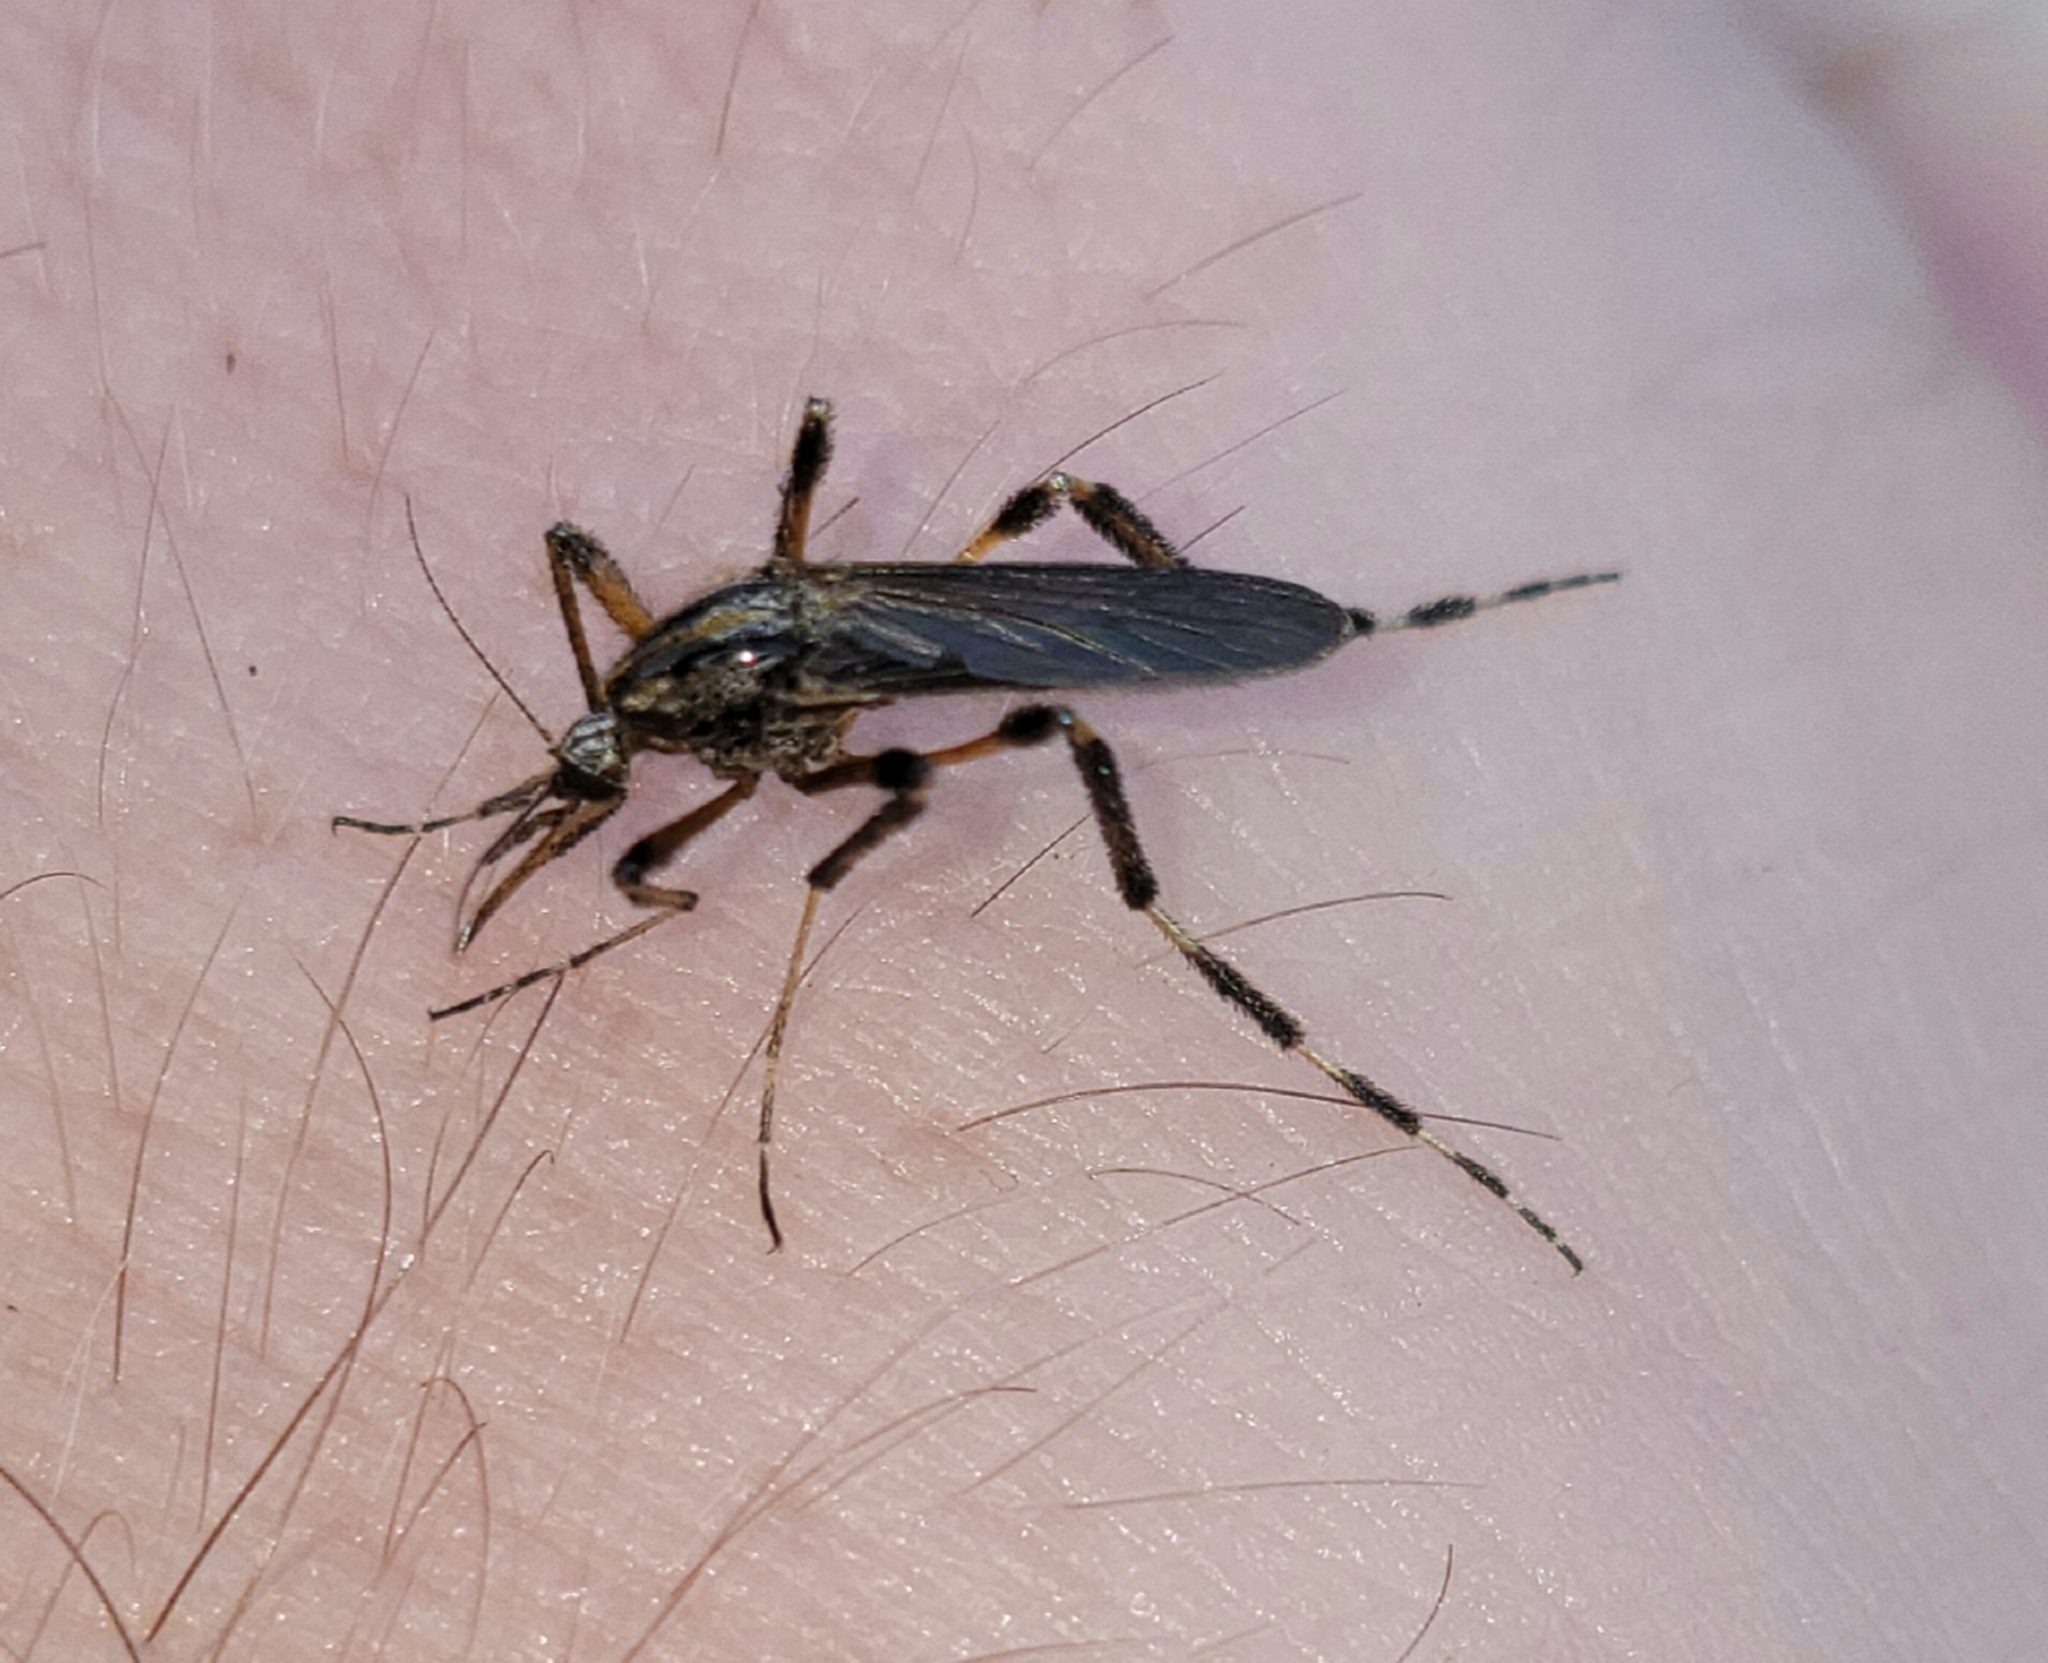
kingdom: Animalia
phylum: Arthropoda
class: Insecta
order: Diptera
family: Culicidae
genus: Psorophora
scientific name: Psorophora ciliata
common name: Gallinipper
